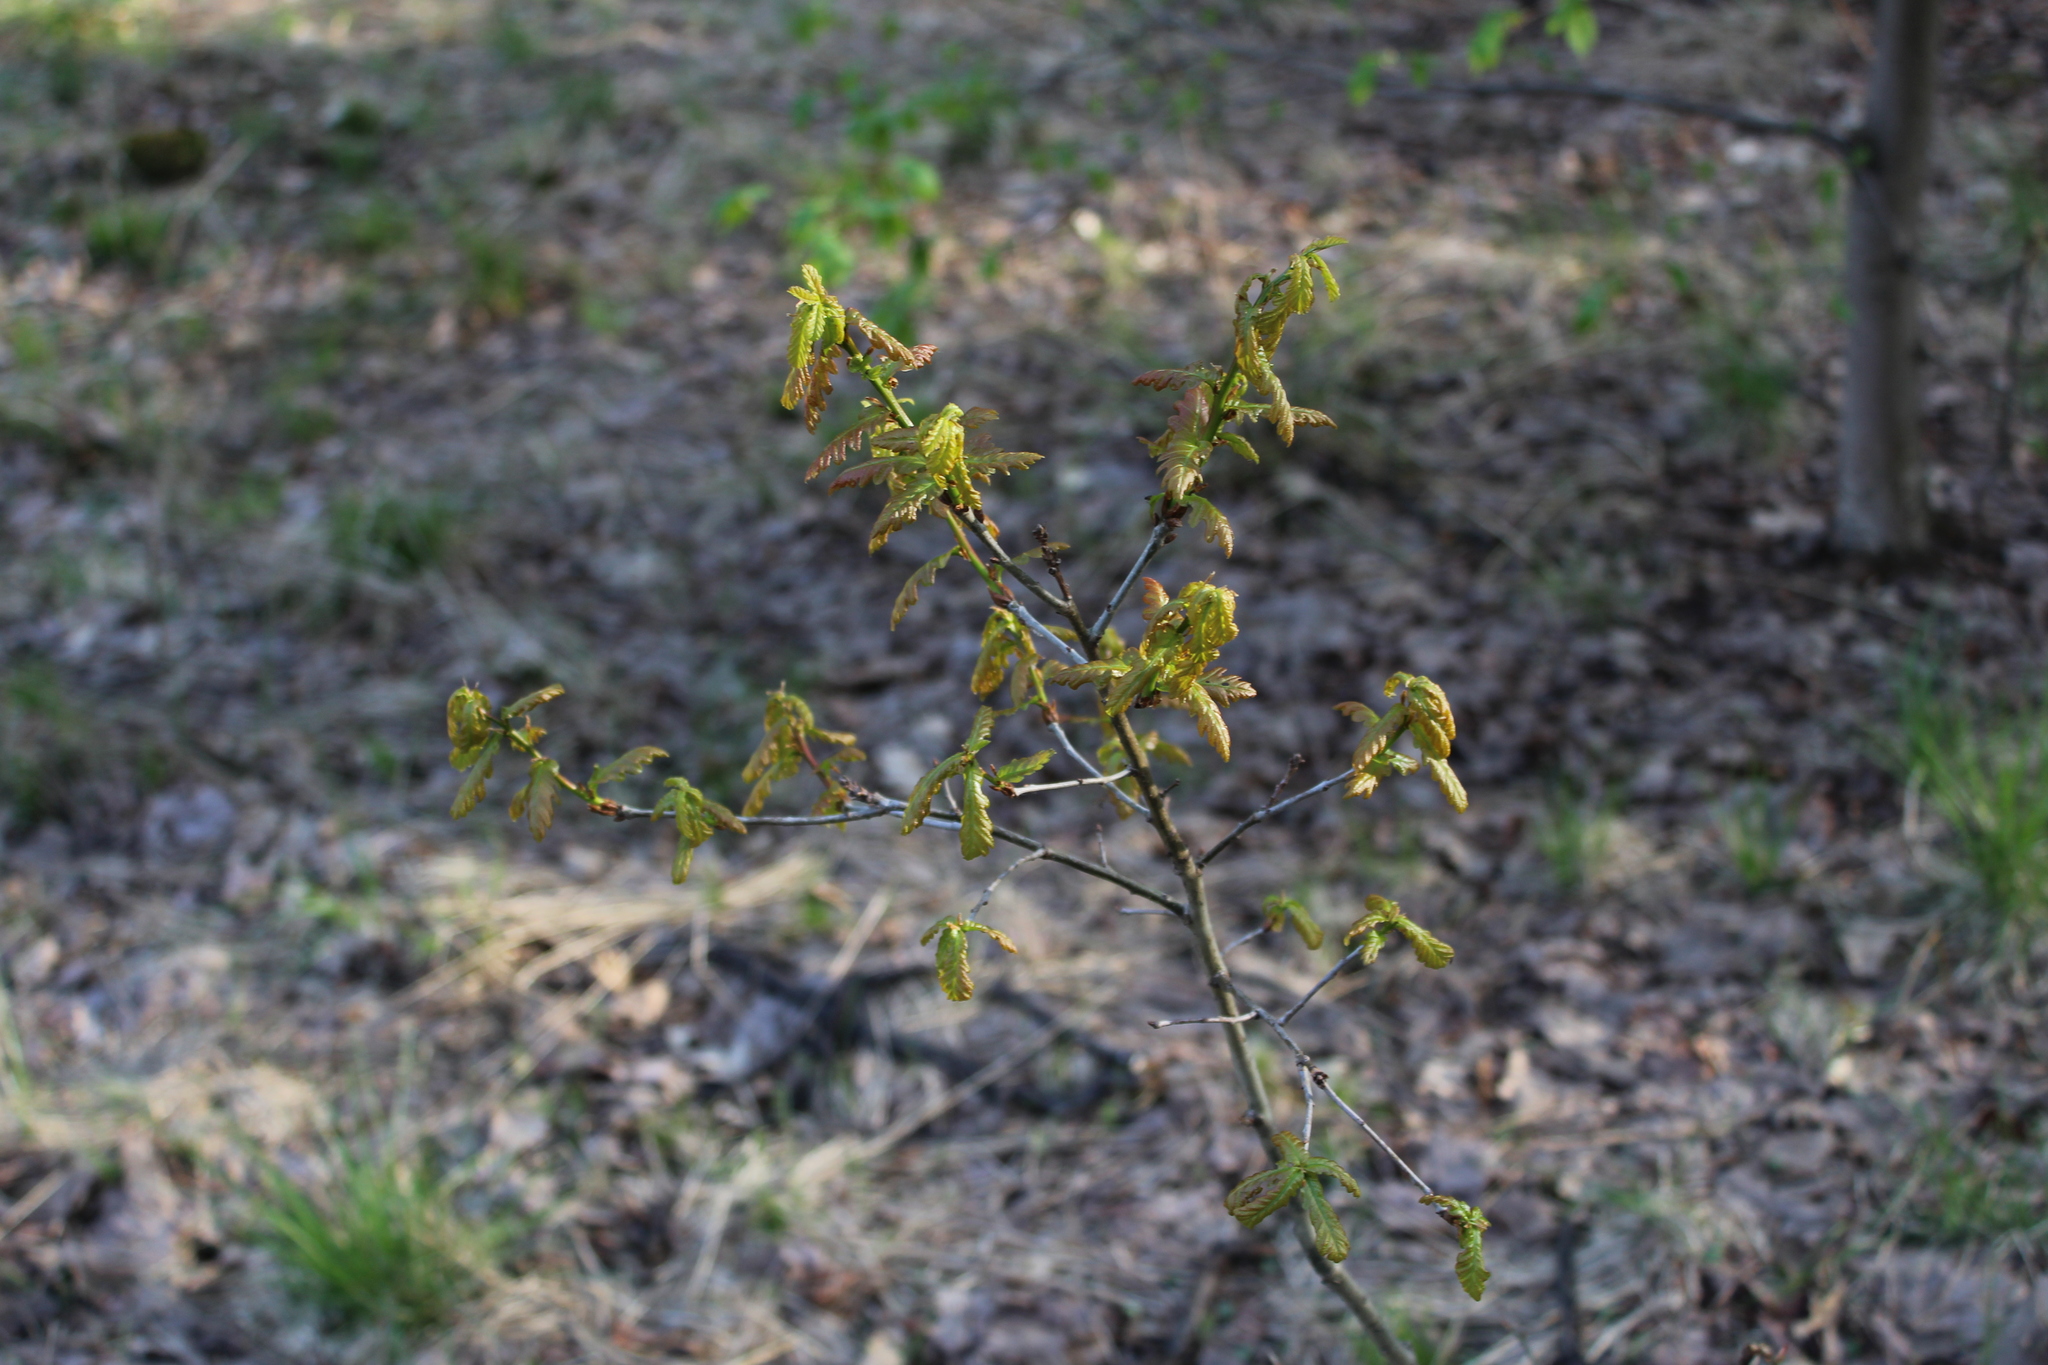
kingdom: Plantae
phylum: Tracheophyta
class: Magnoliopsida
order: Fagales
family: Fagaceae
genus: Quercus
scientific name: Quercus robur
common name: Pedunculate oak
